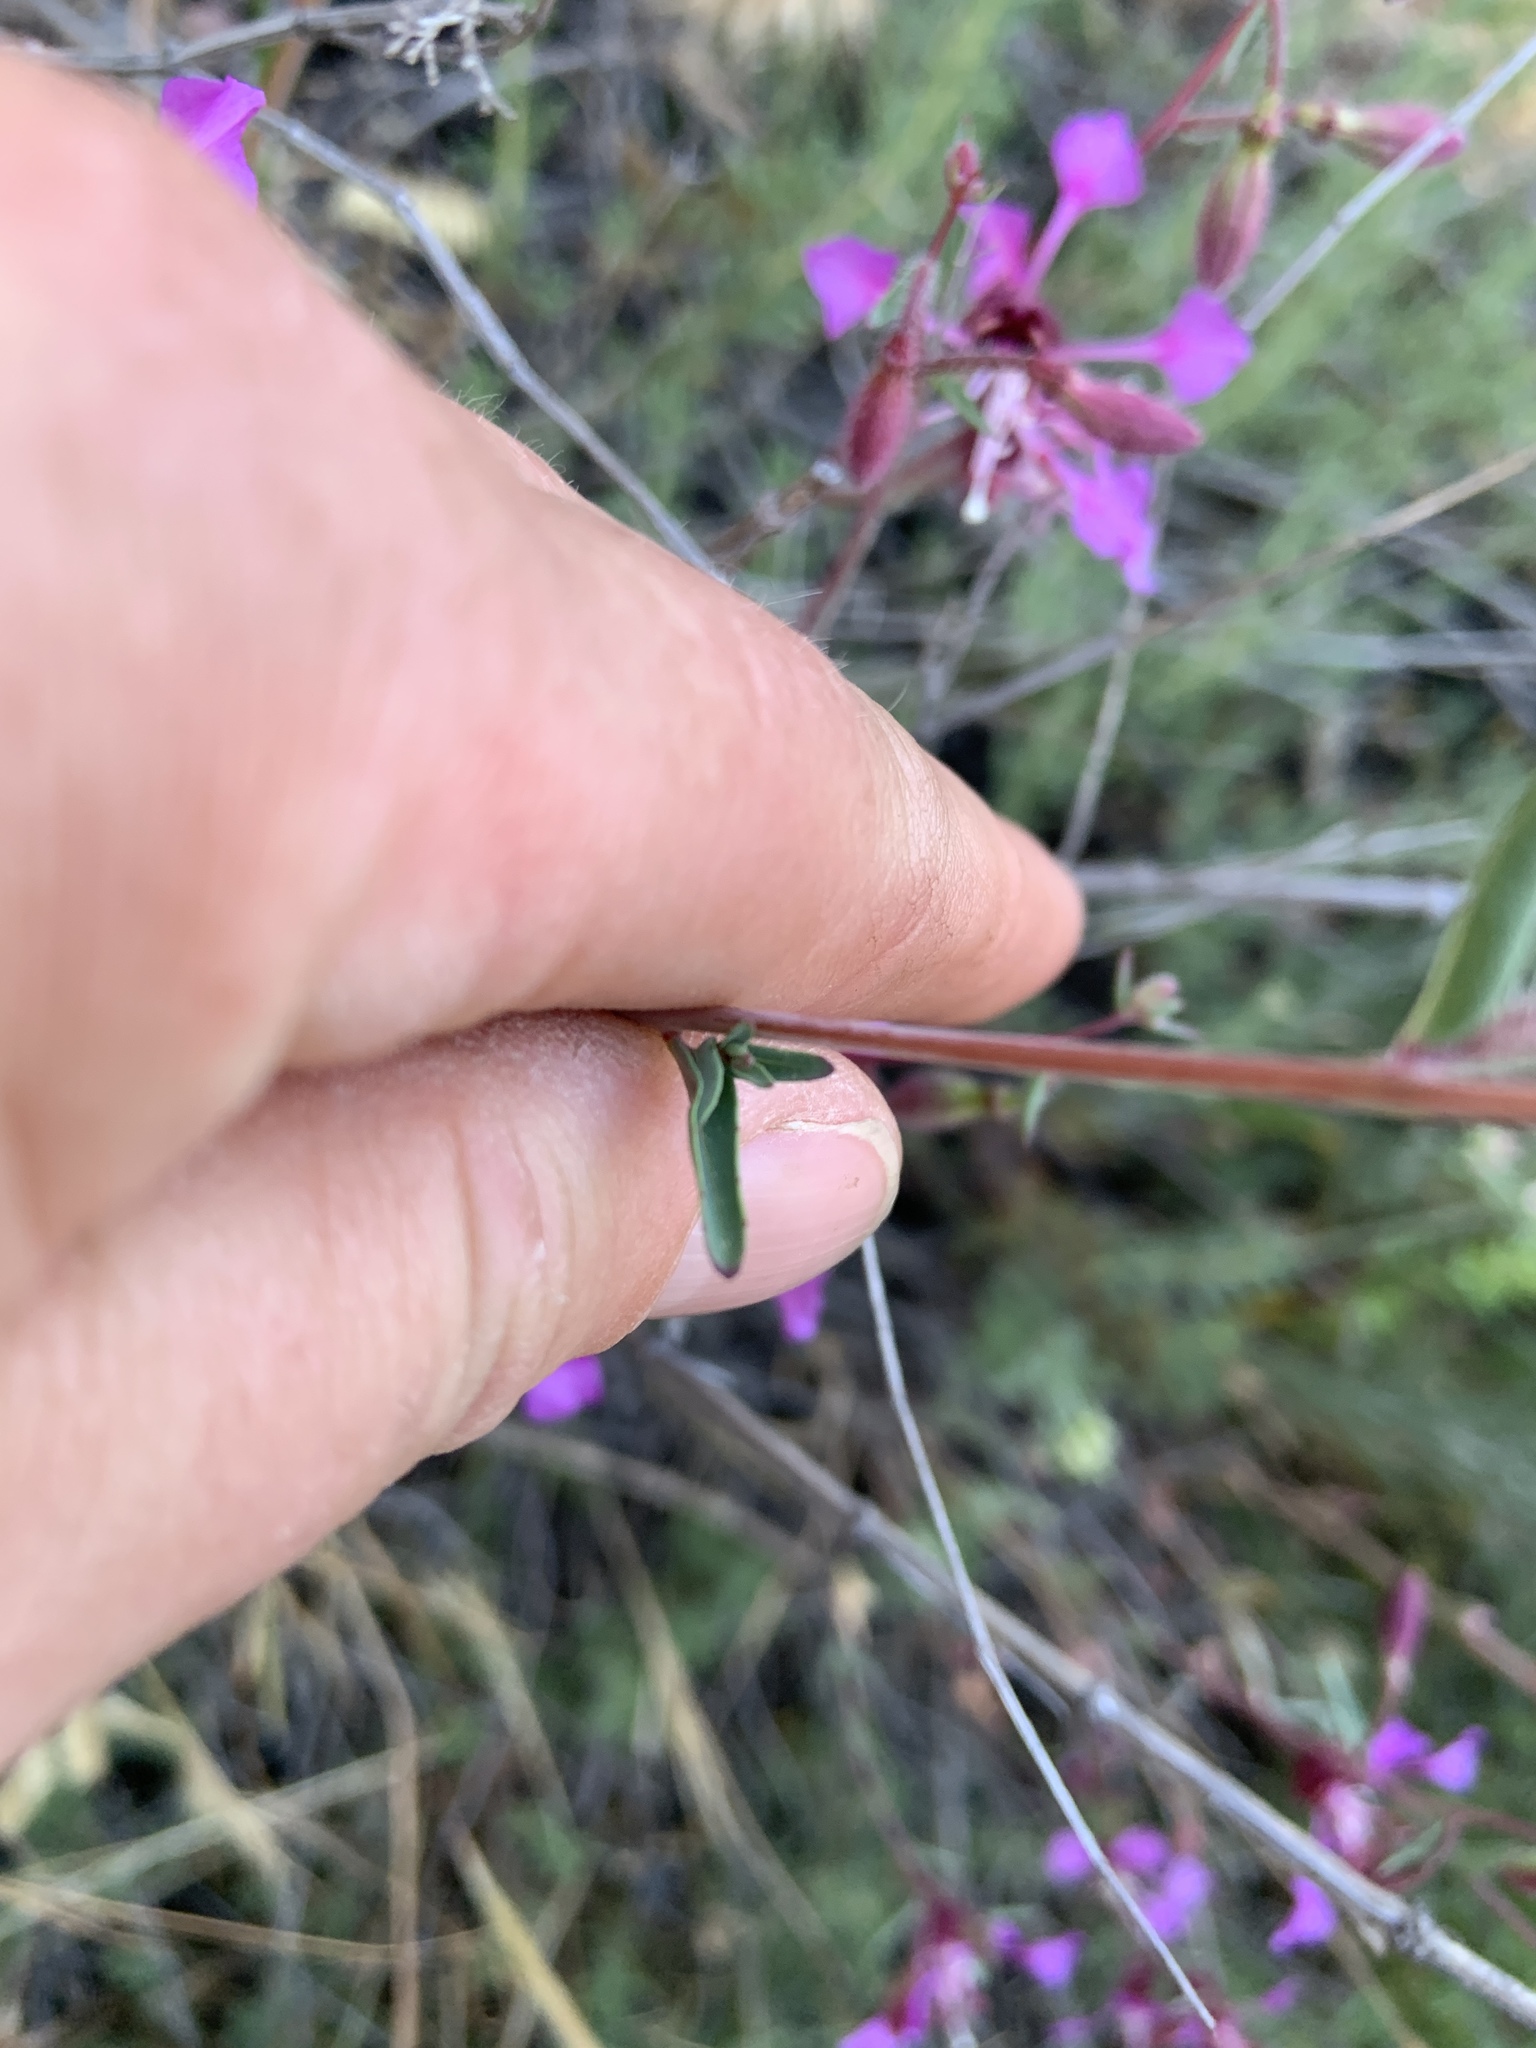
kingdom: Plantae
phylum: Tracheophyta
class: Magnoliopsida
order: Myrtales
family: Onagraceae
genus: Clarkia
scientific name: Clarkia unguiculata
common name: Clarkia
